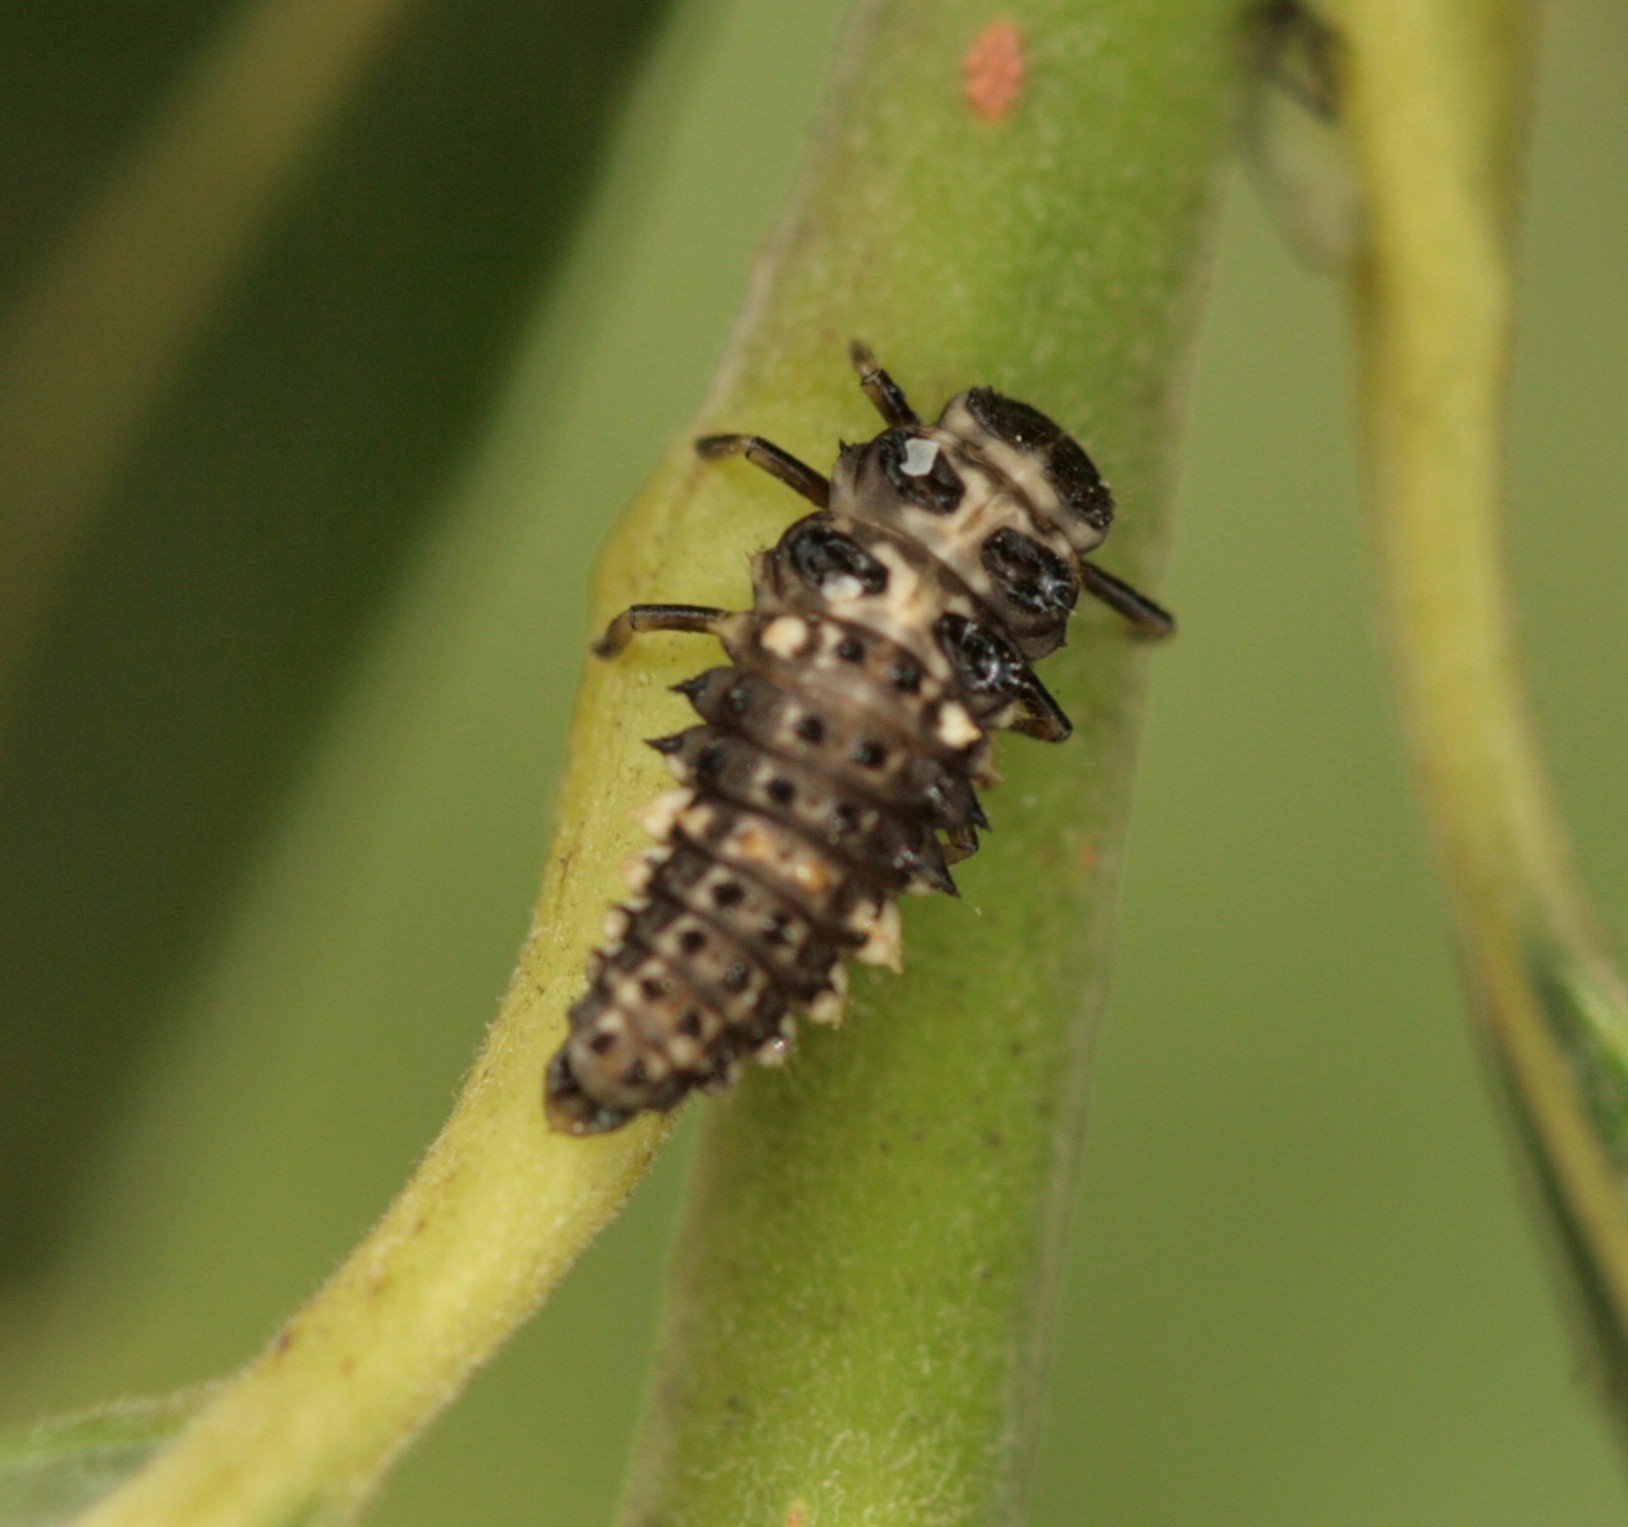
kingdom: Animalia
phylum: Arthropoda
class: Insecta
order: Coleoptera
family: Coccinellidae
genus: Calvia
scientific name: Calvia quatuordecimguttata
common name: Cream-spot ladybird
